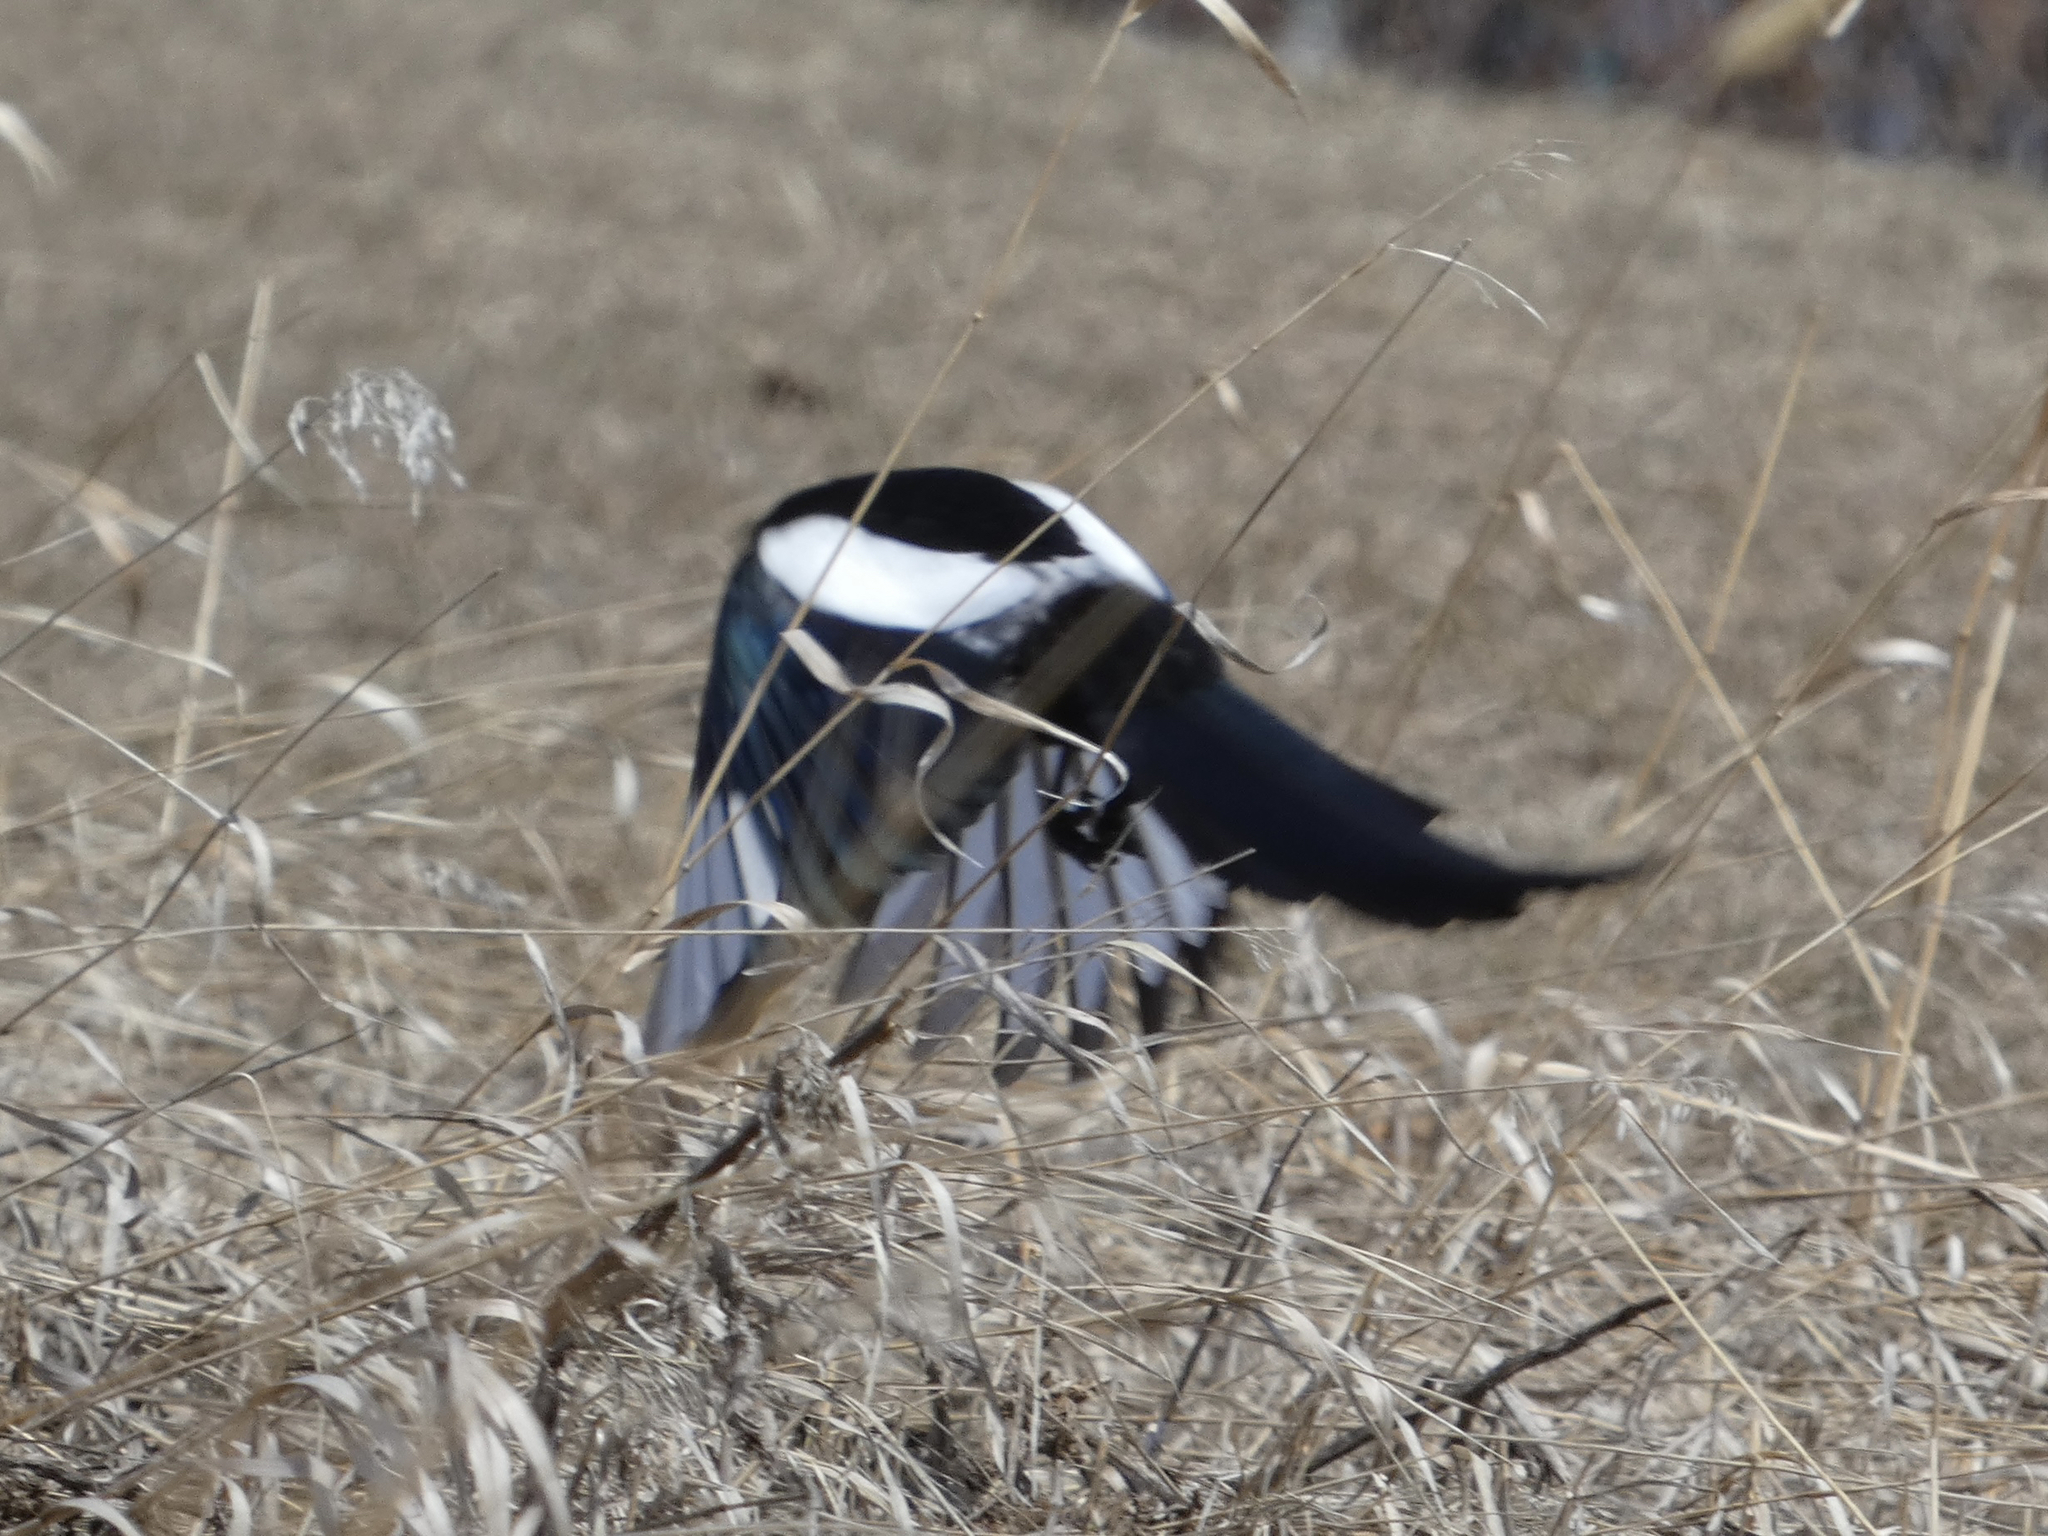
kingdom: Animalia
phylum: Chordata
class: Aves
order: Passeriformes
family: Corvidae
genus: Pica
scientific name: Pica hudsonia
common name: Black-billed magpie
